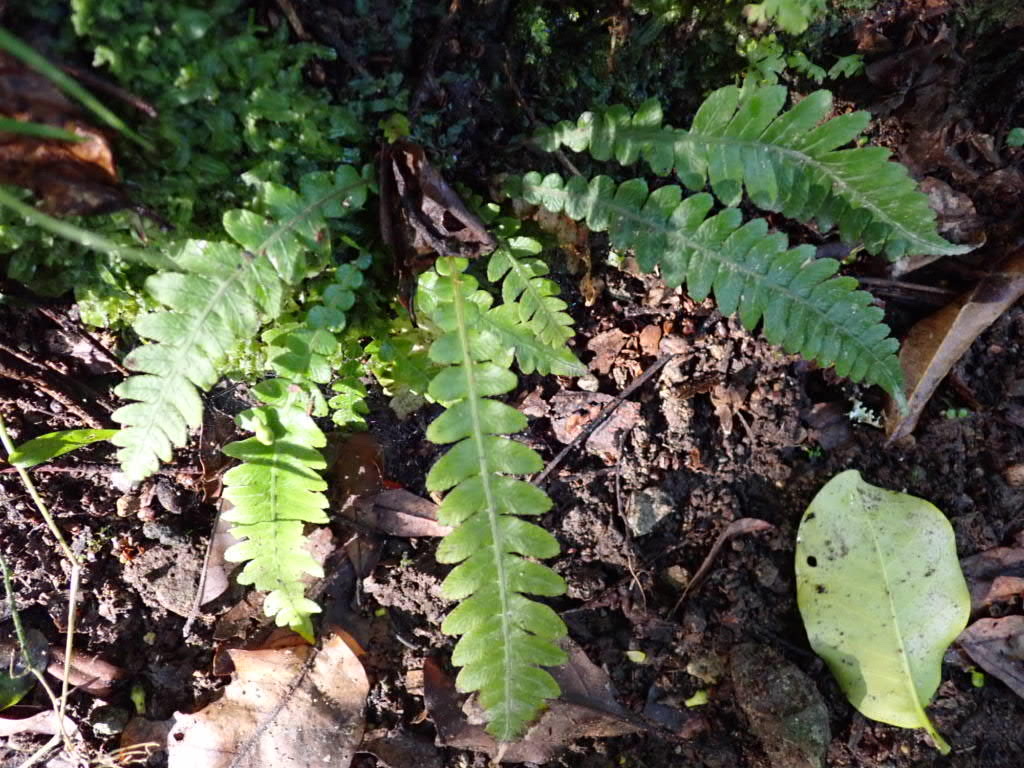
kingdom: Plantae
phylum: Tracheophyta
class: Polypodiopsida
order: Polypodiales
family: Blechnaceae
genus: Austroblechnum
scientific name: Austroblechnum lanceolatum
